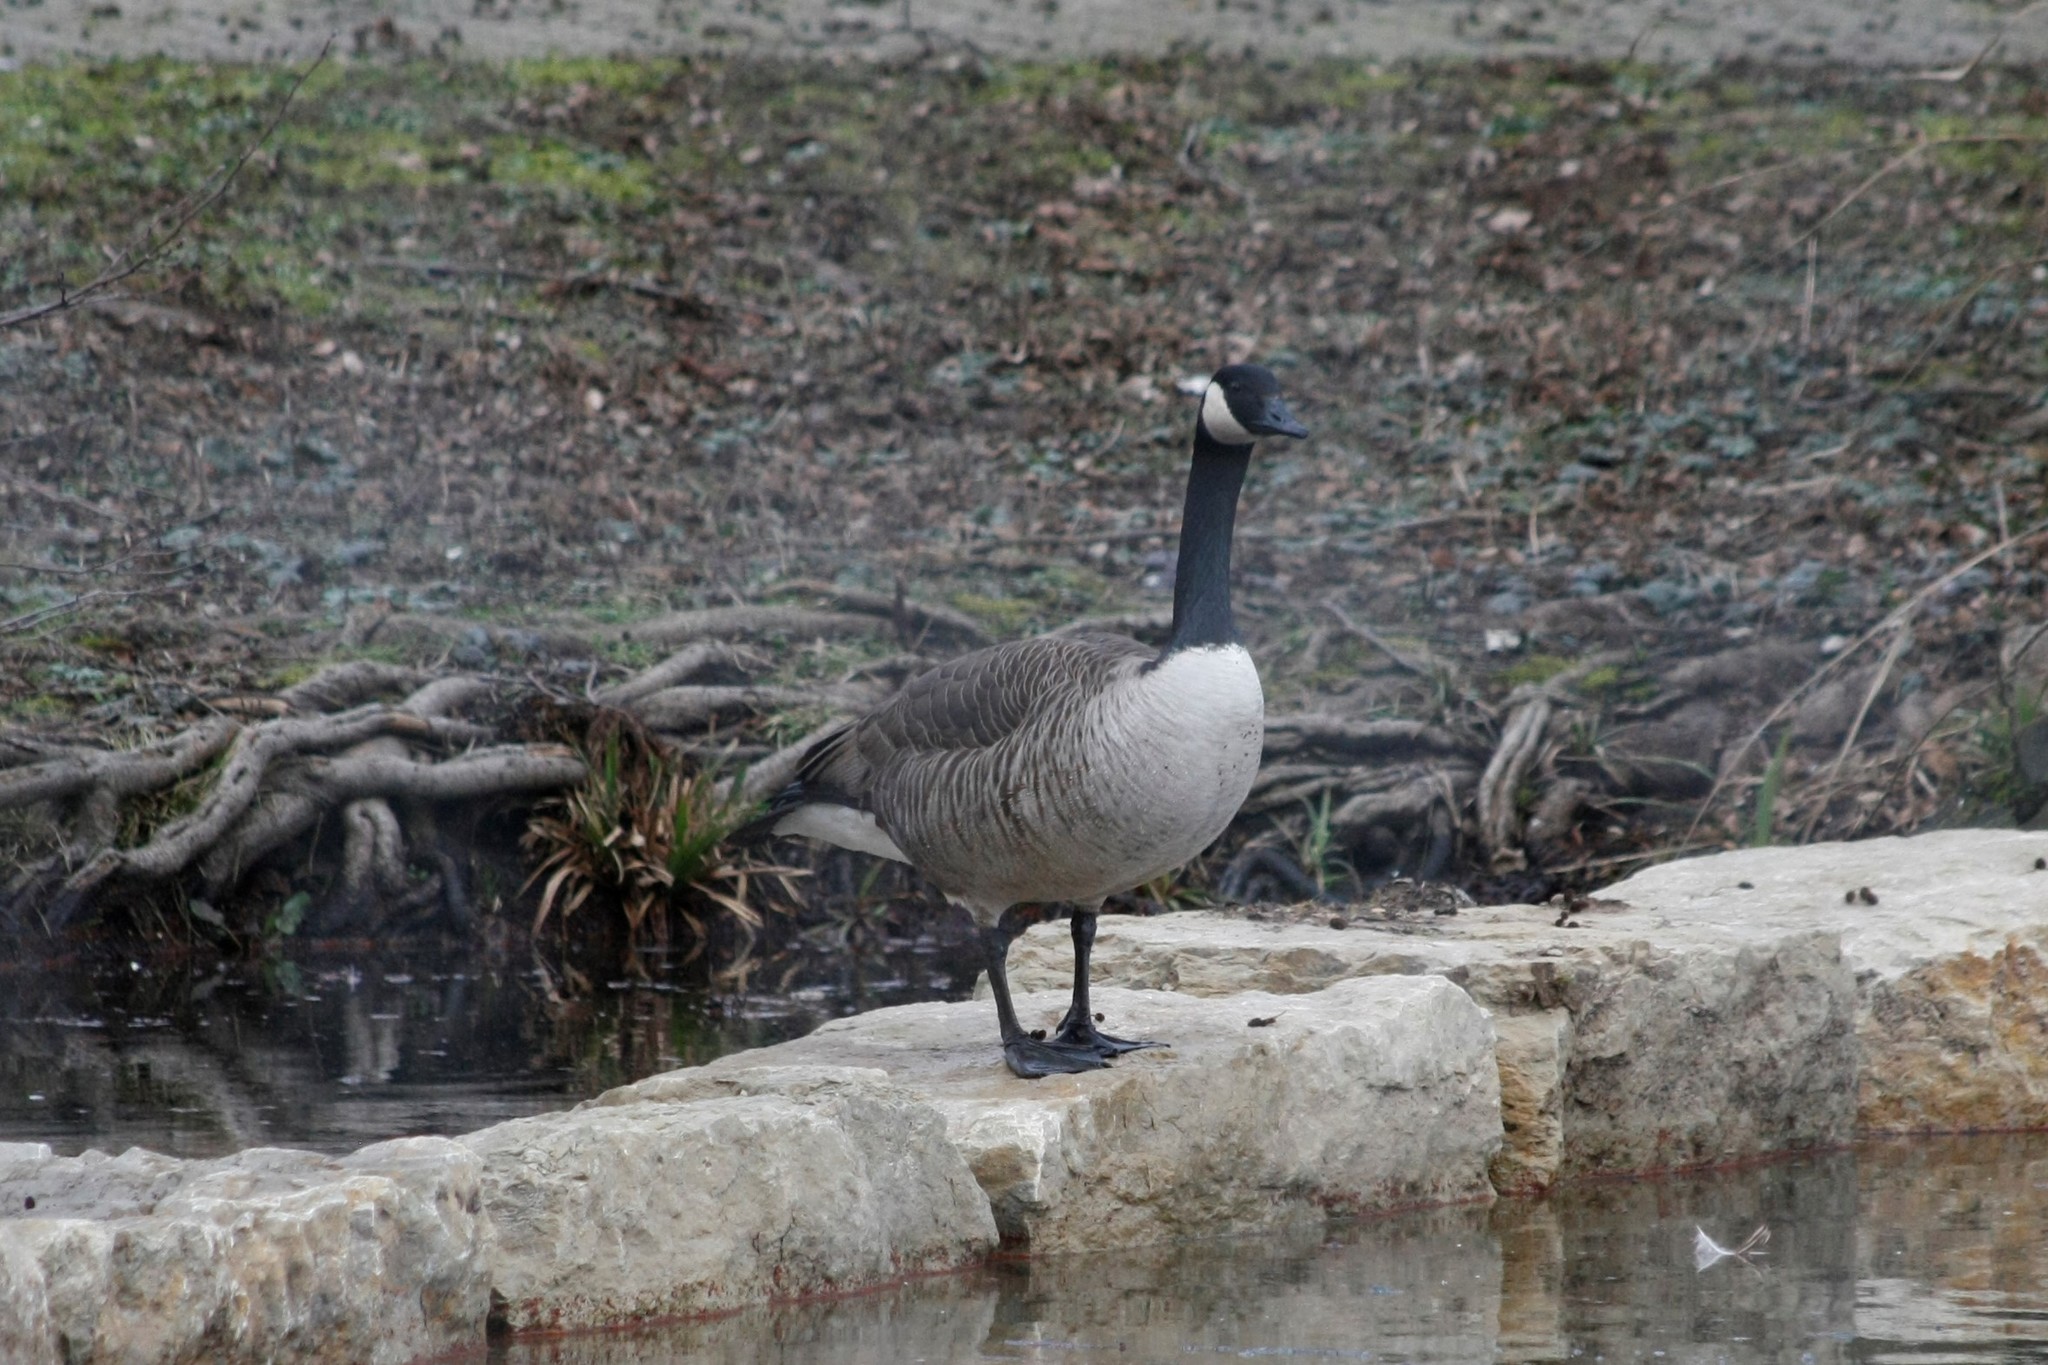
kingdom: Animalia
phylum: Chordata
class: Aves
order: Anseriformes
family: Anatidae
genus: Branta
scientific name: Branta canadensis
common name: Canada goose
